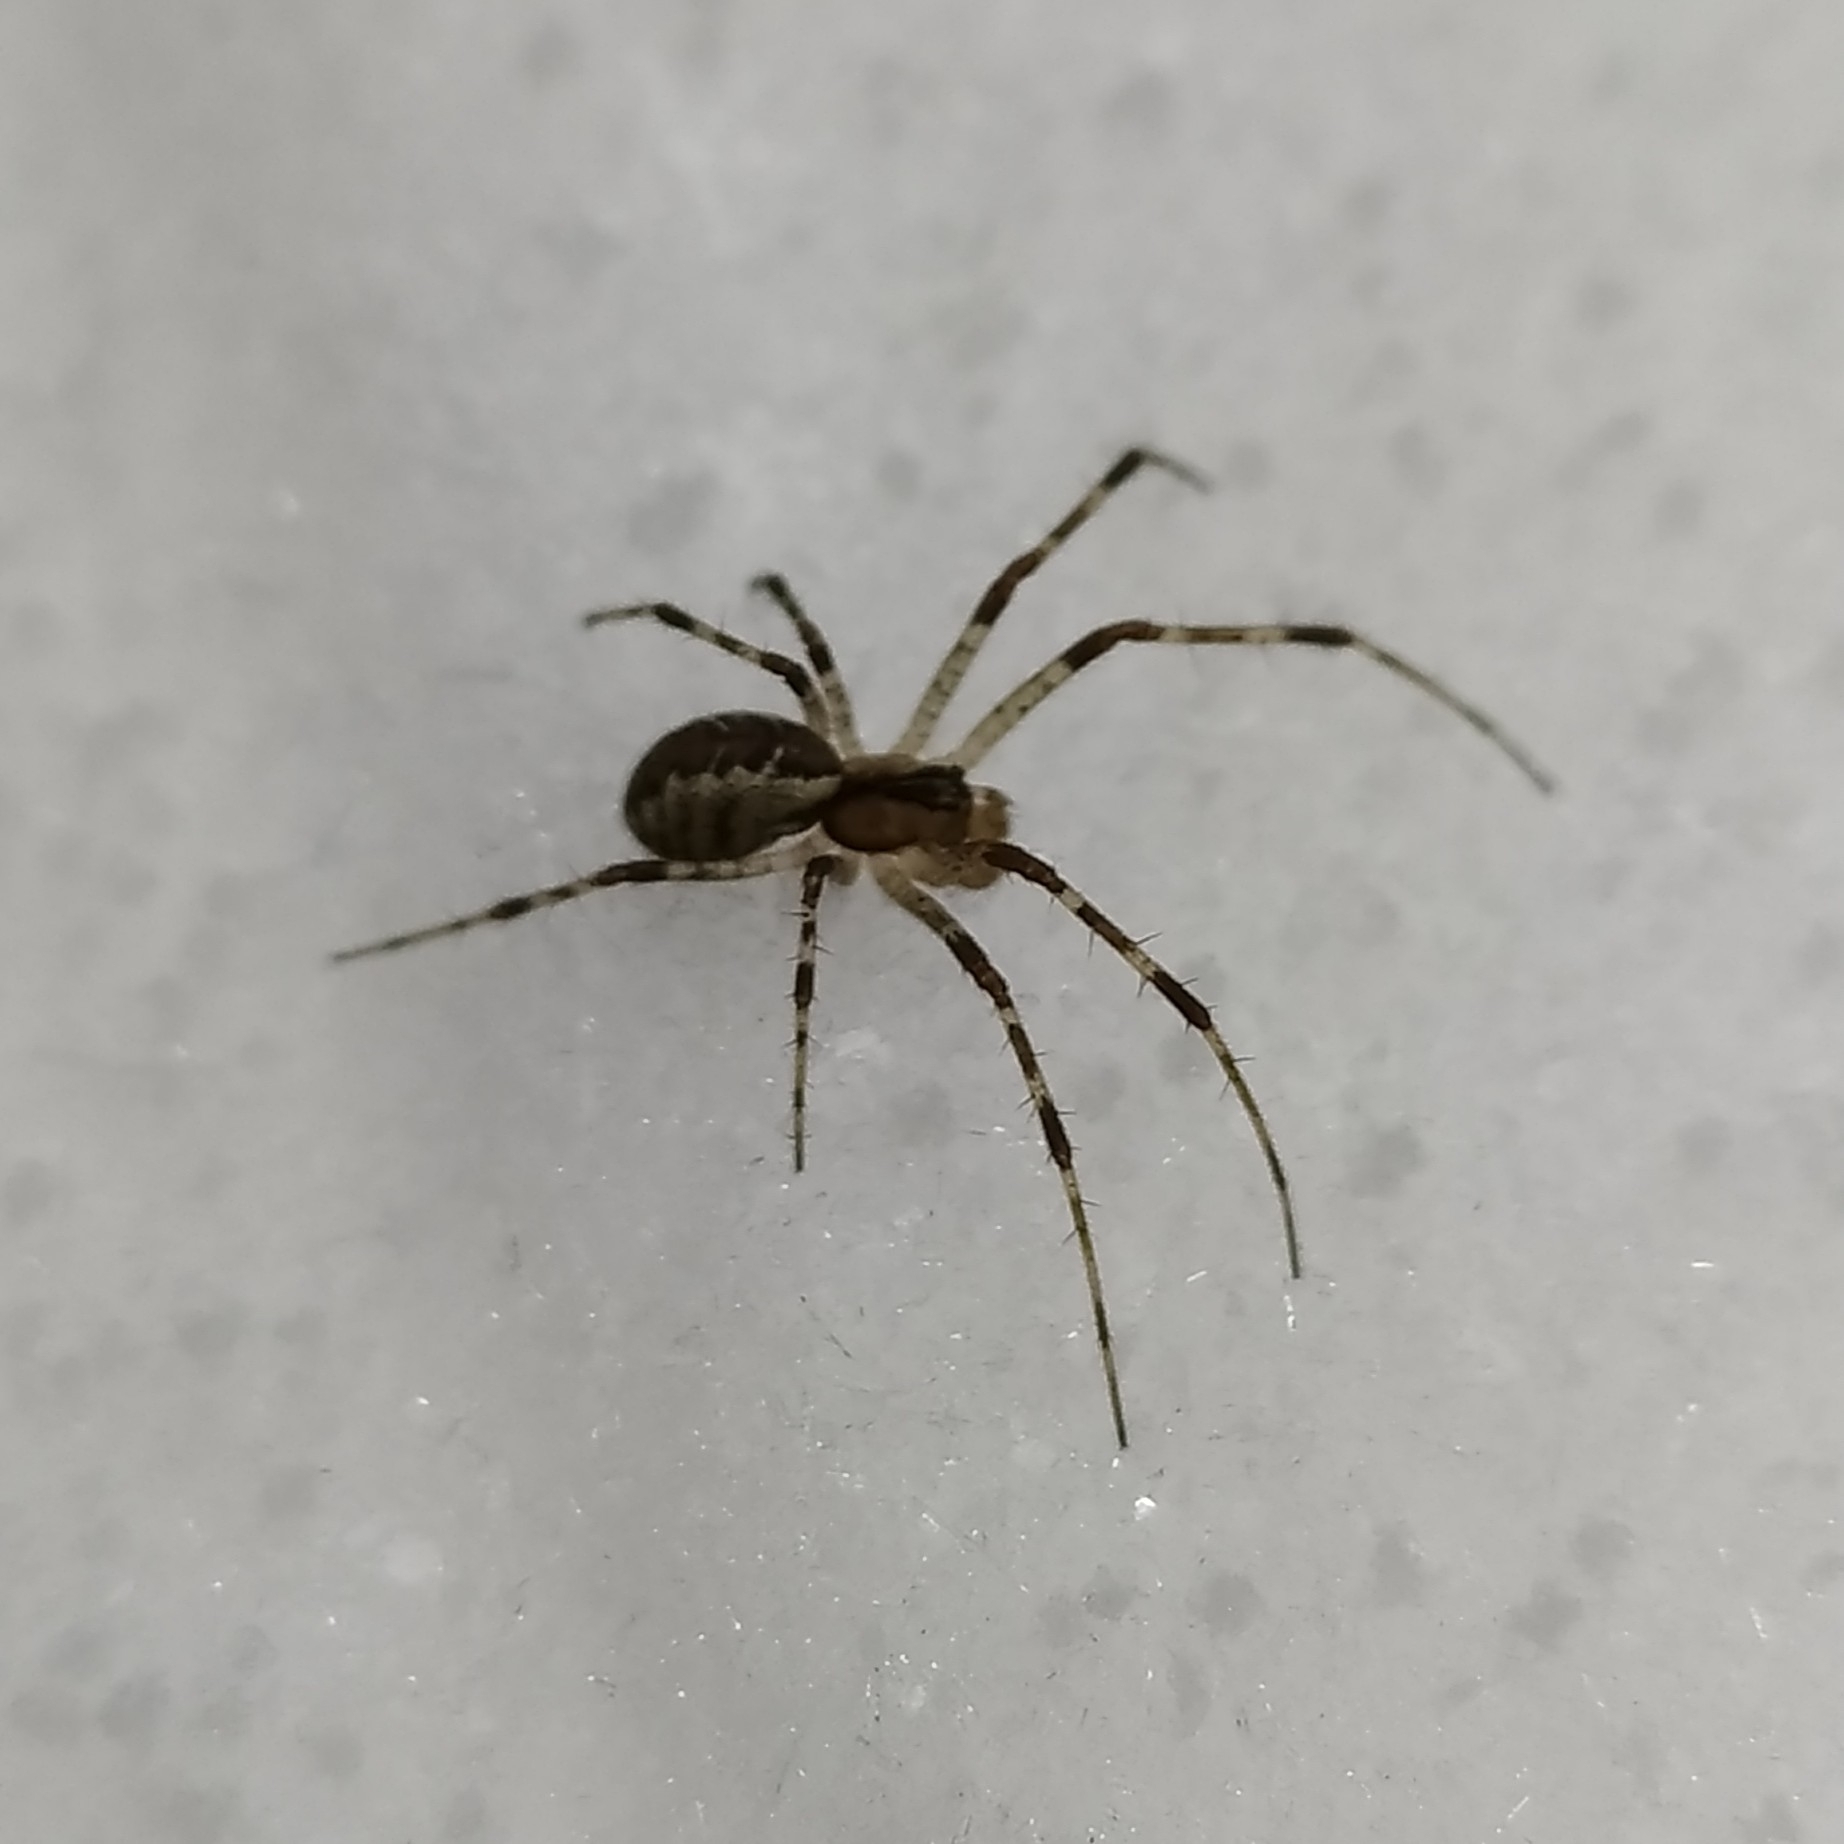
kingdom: Animalia
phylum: Arthropoda
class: Arachnida
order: Araneae
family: Linyphiidae
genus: Pityohyphantes
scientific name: Pityohyphantes phrygianus
